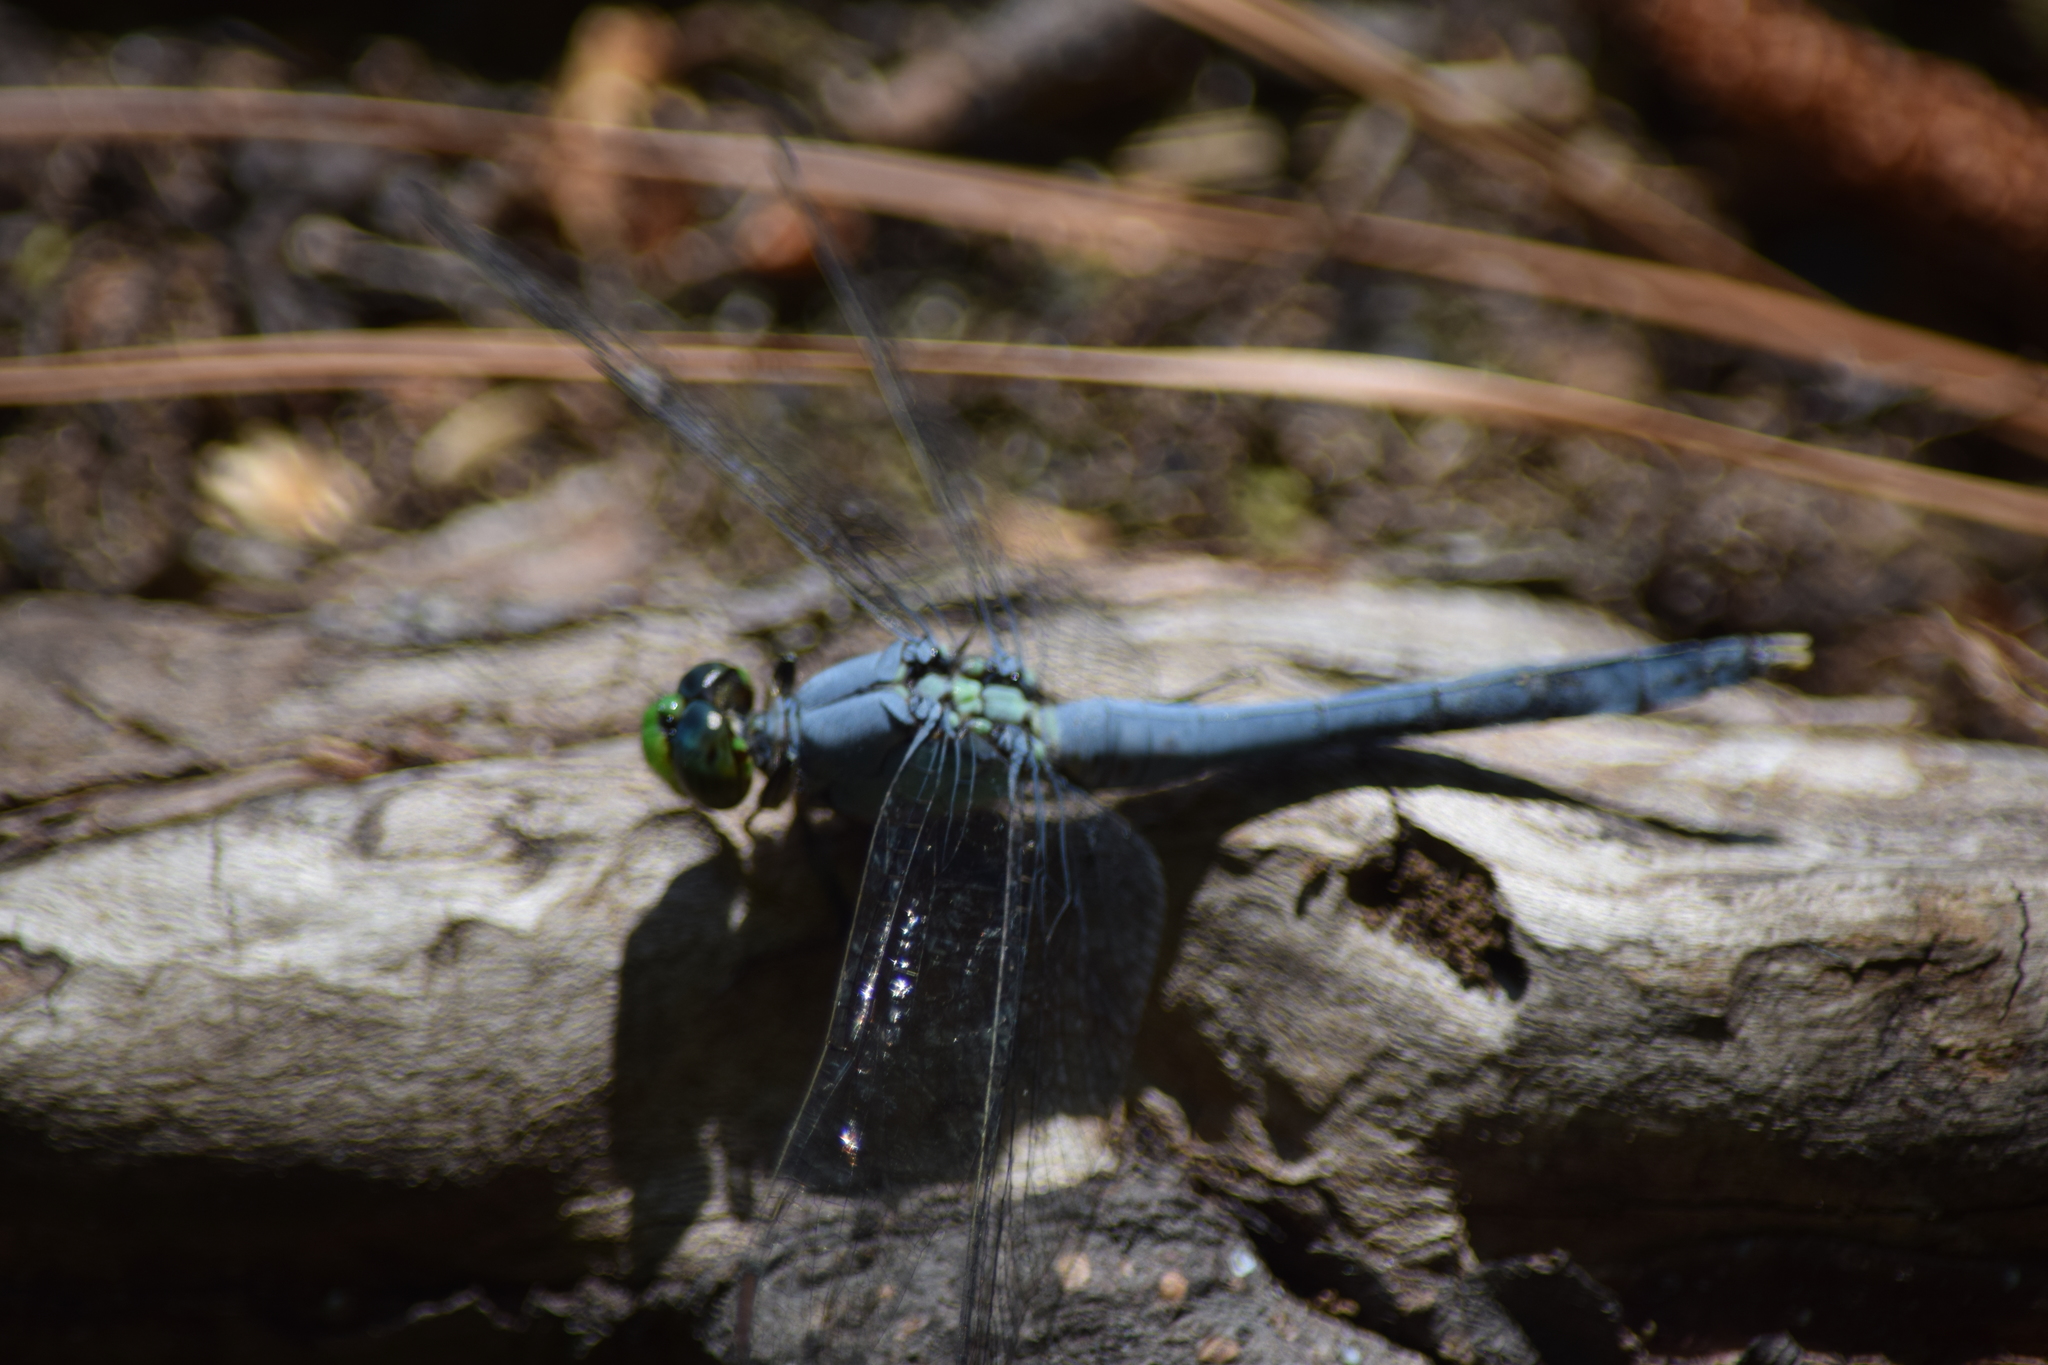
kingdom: Animalia
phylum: Arthropoda
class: Insecta
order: Odonata
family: Libellulidae
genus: Erythemis
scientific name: Erythemis simplicicollis
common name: Eastern pondhawk
